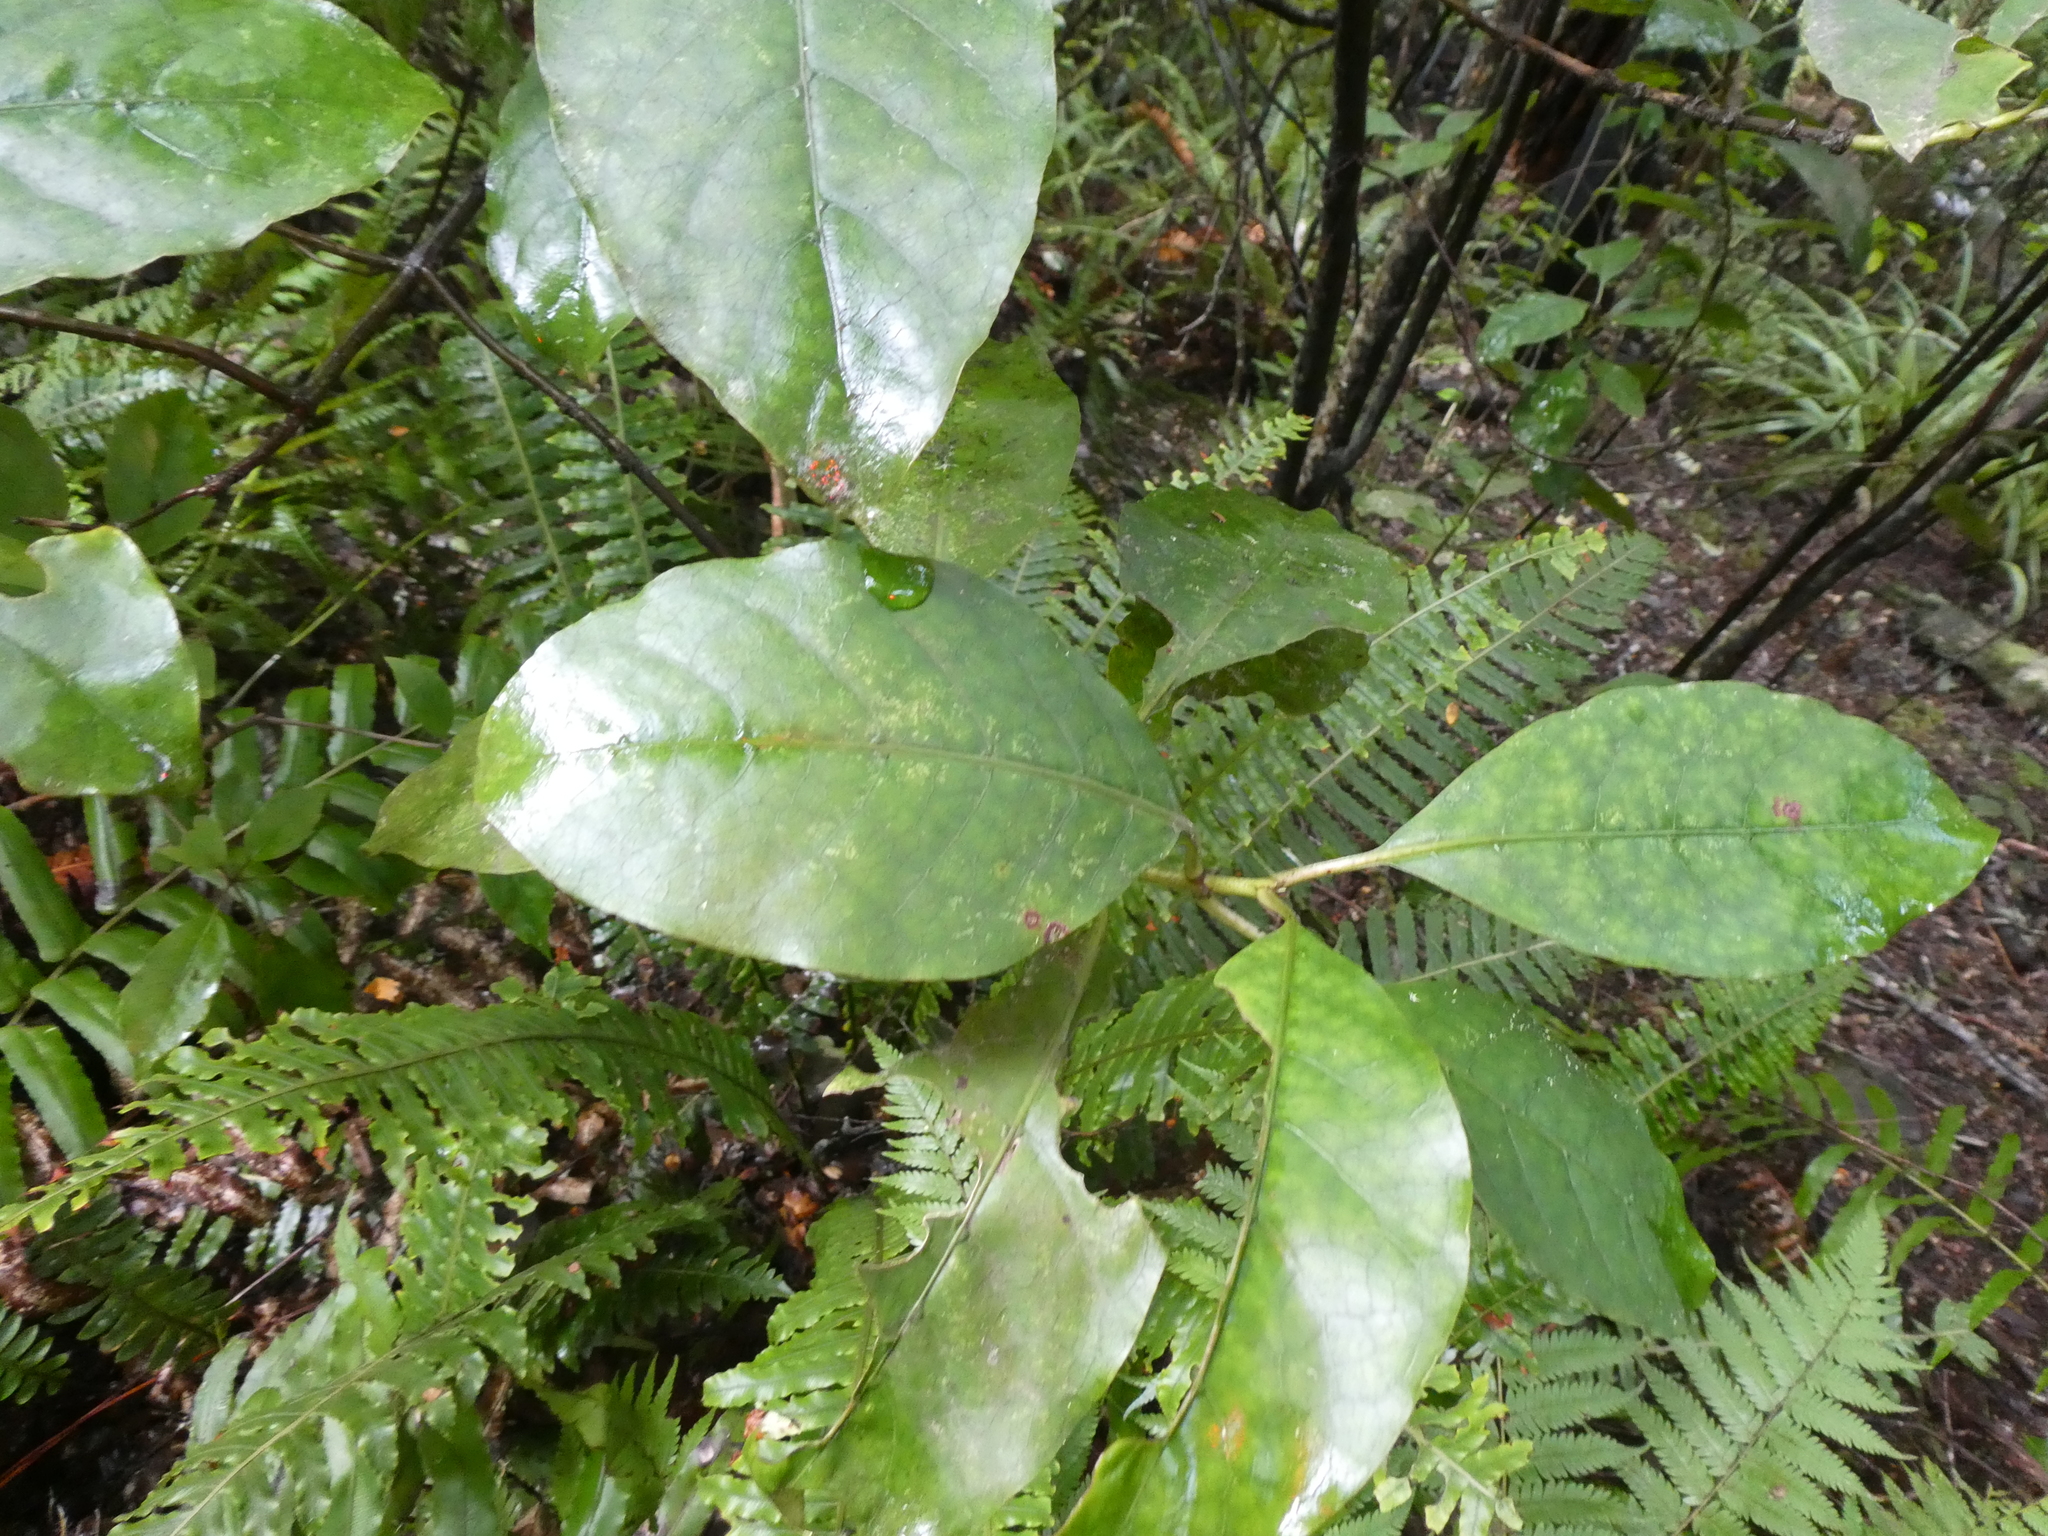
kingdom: Plantae
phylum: Tracheophyta
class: Magnoliopsida
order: Gentianales
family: Rubiaceae
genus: Coprosma
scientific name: Coprosma autumnalis
